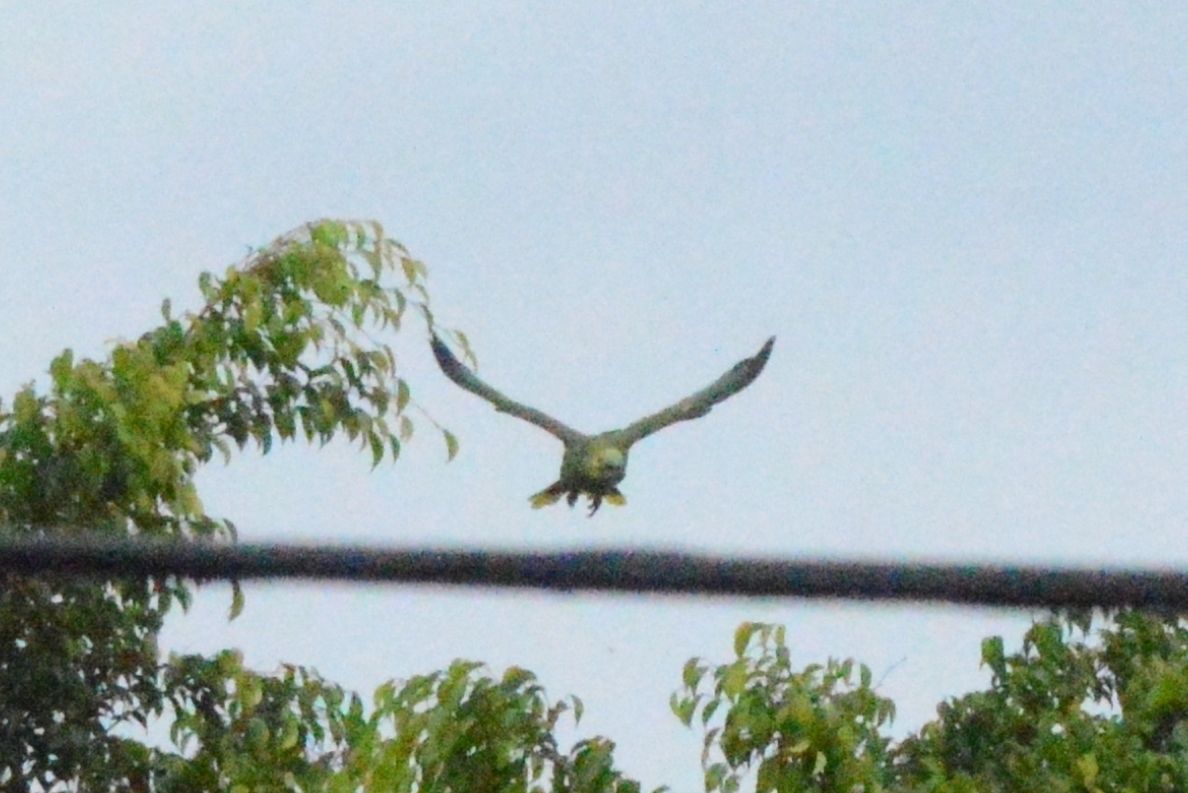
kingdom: Animalia
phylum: Chordata
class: Aves
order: Psittaciformes
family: Psittacidae
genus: Amazona
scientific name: Amazona aestiva
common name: Turquoise-fronted amazon
